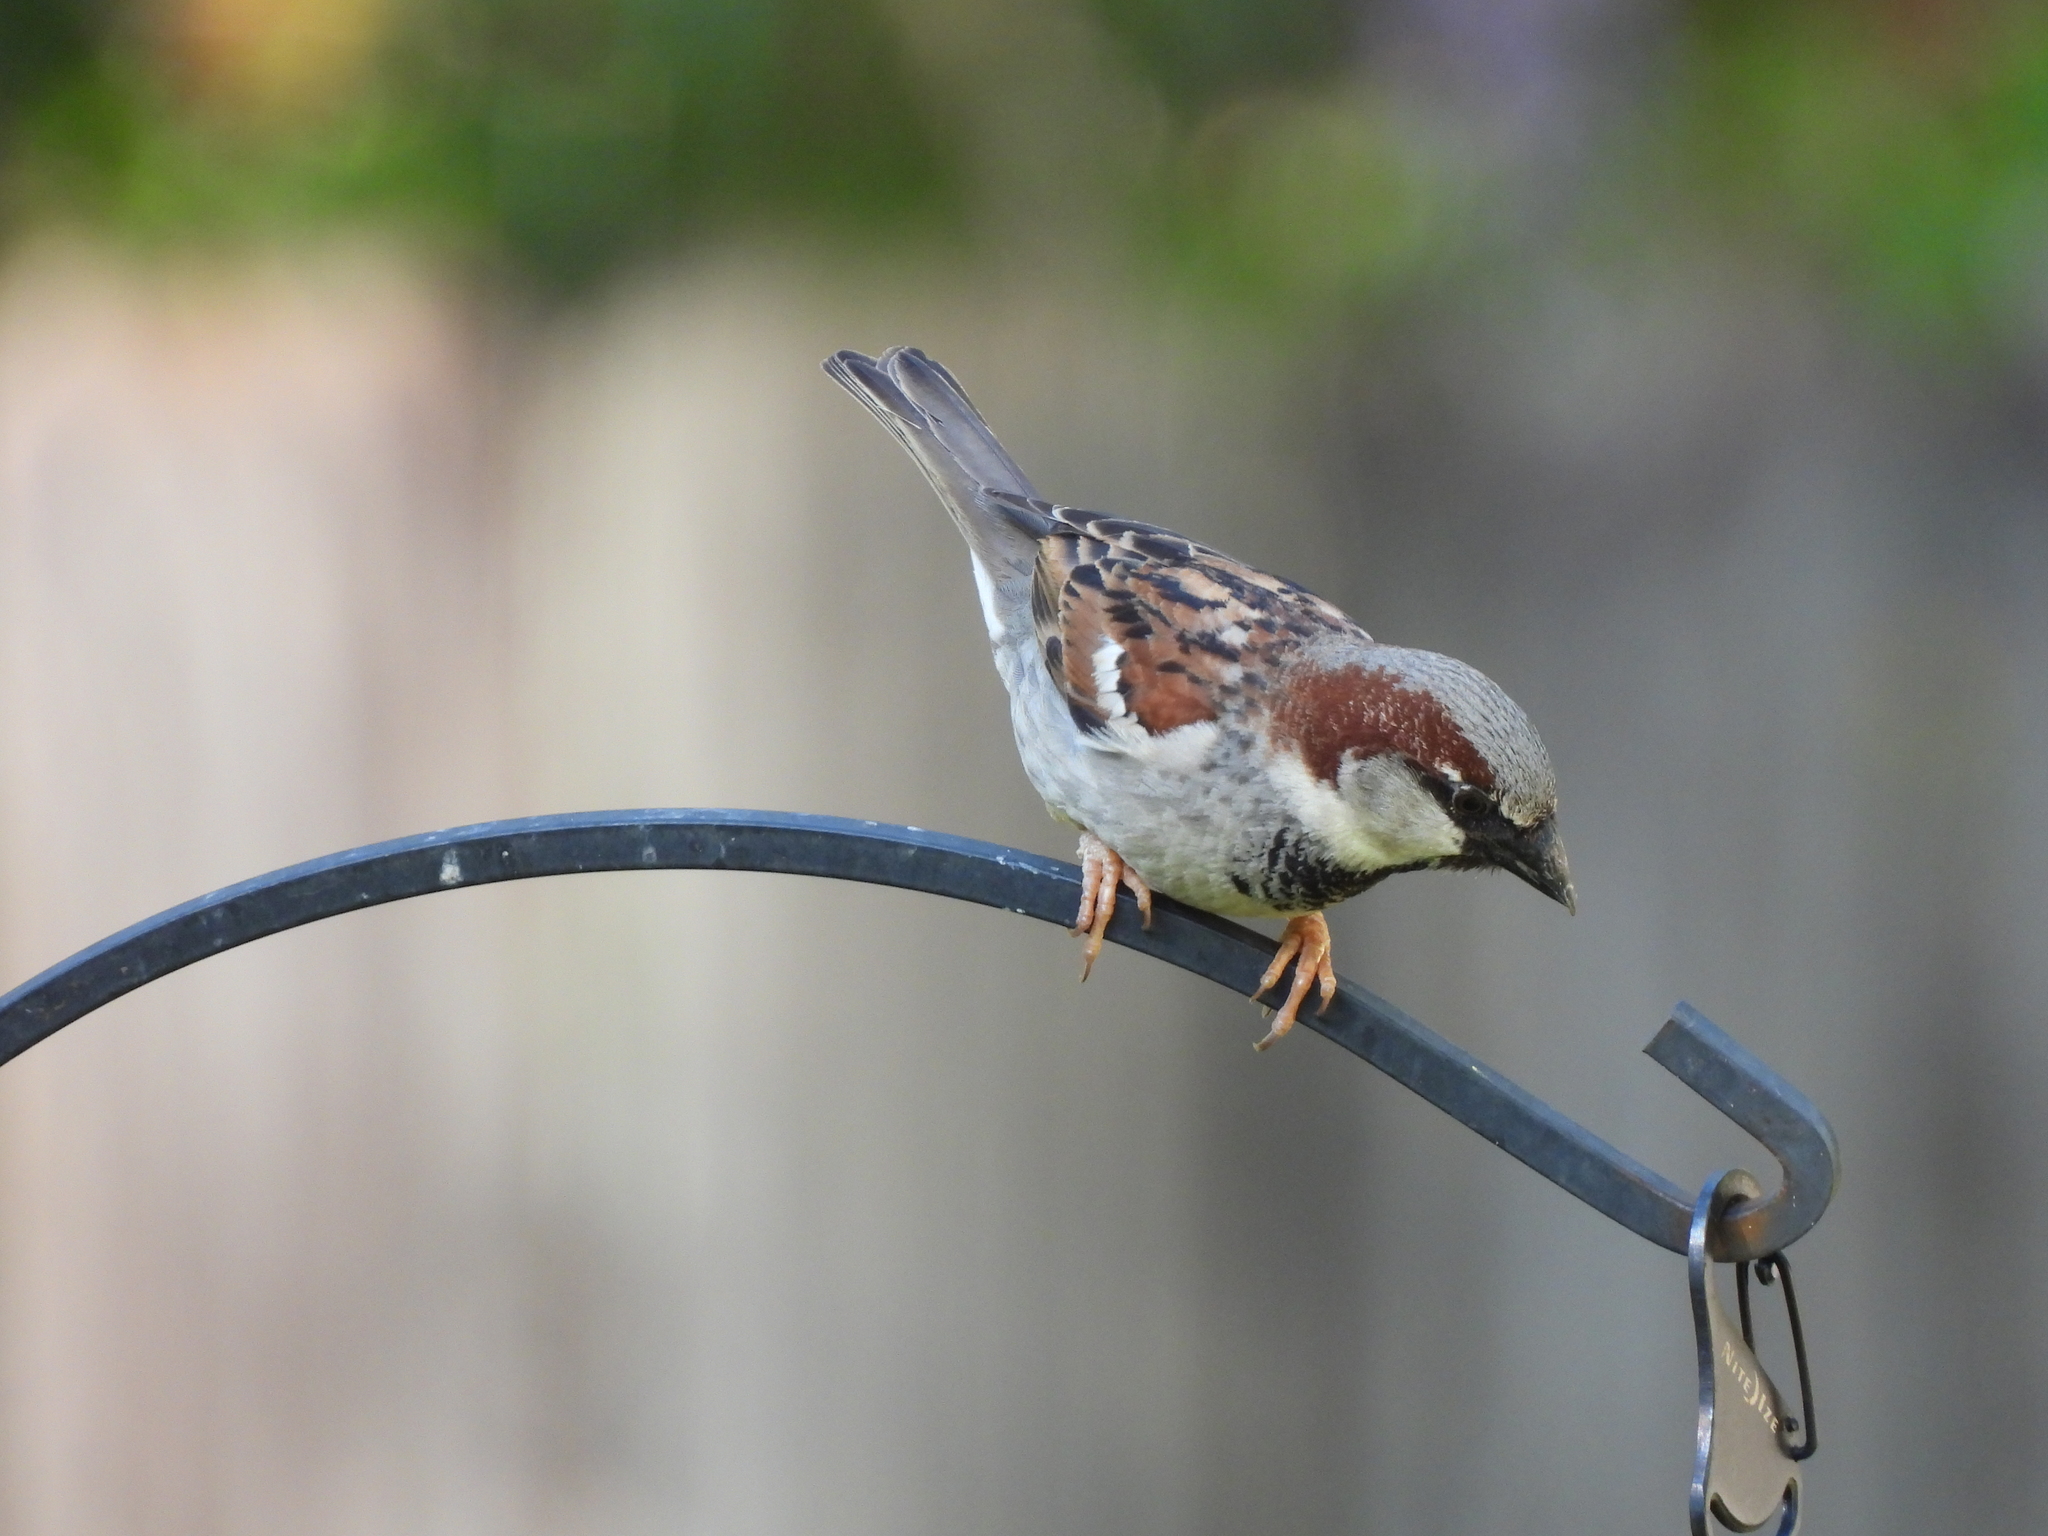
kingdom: Animalia
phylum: Chordata
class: Aves
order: Passeriformes
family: Passeridae
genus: Passer
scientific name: Passer domesticus
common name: House sparrow
